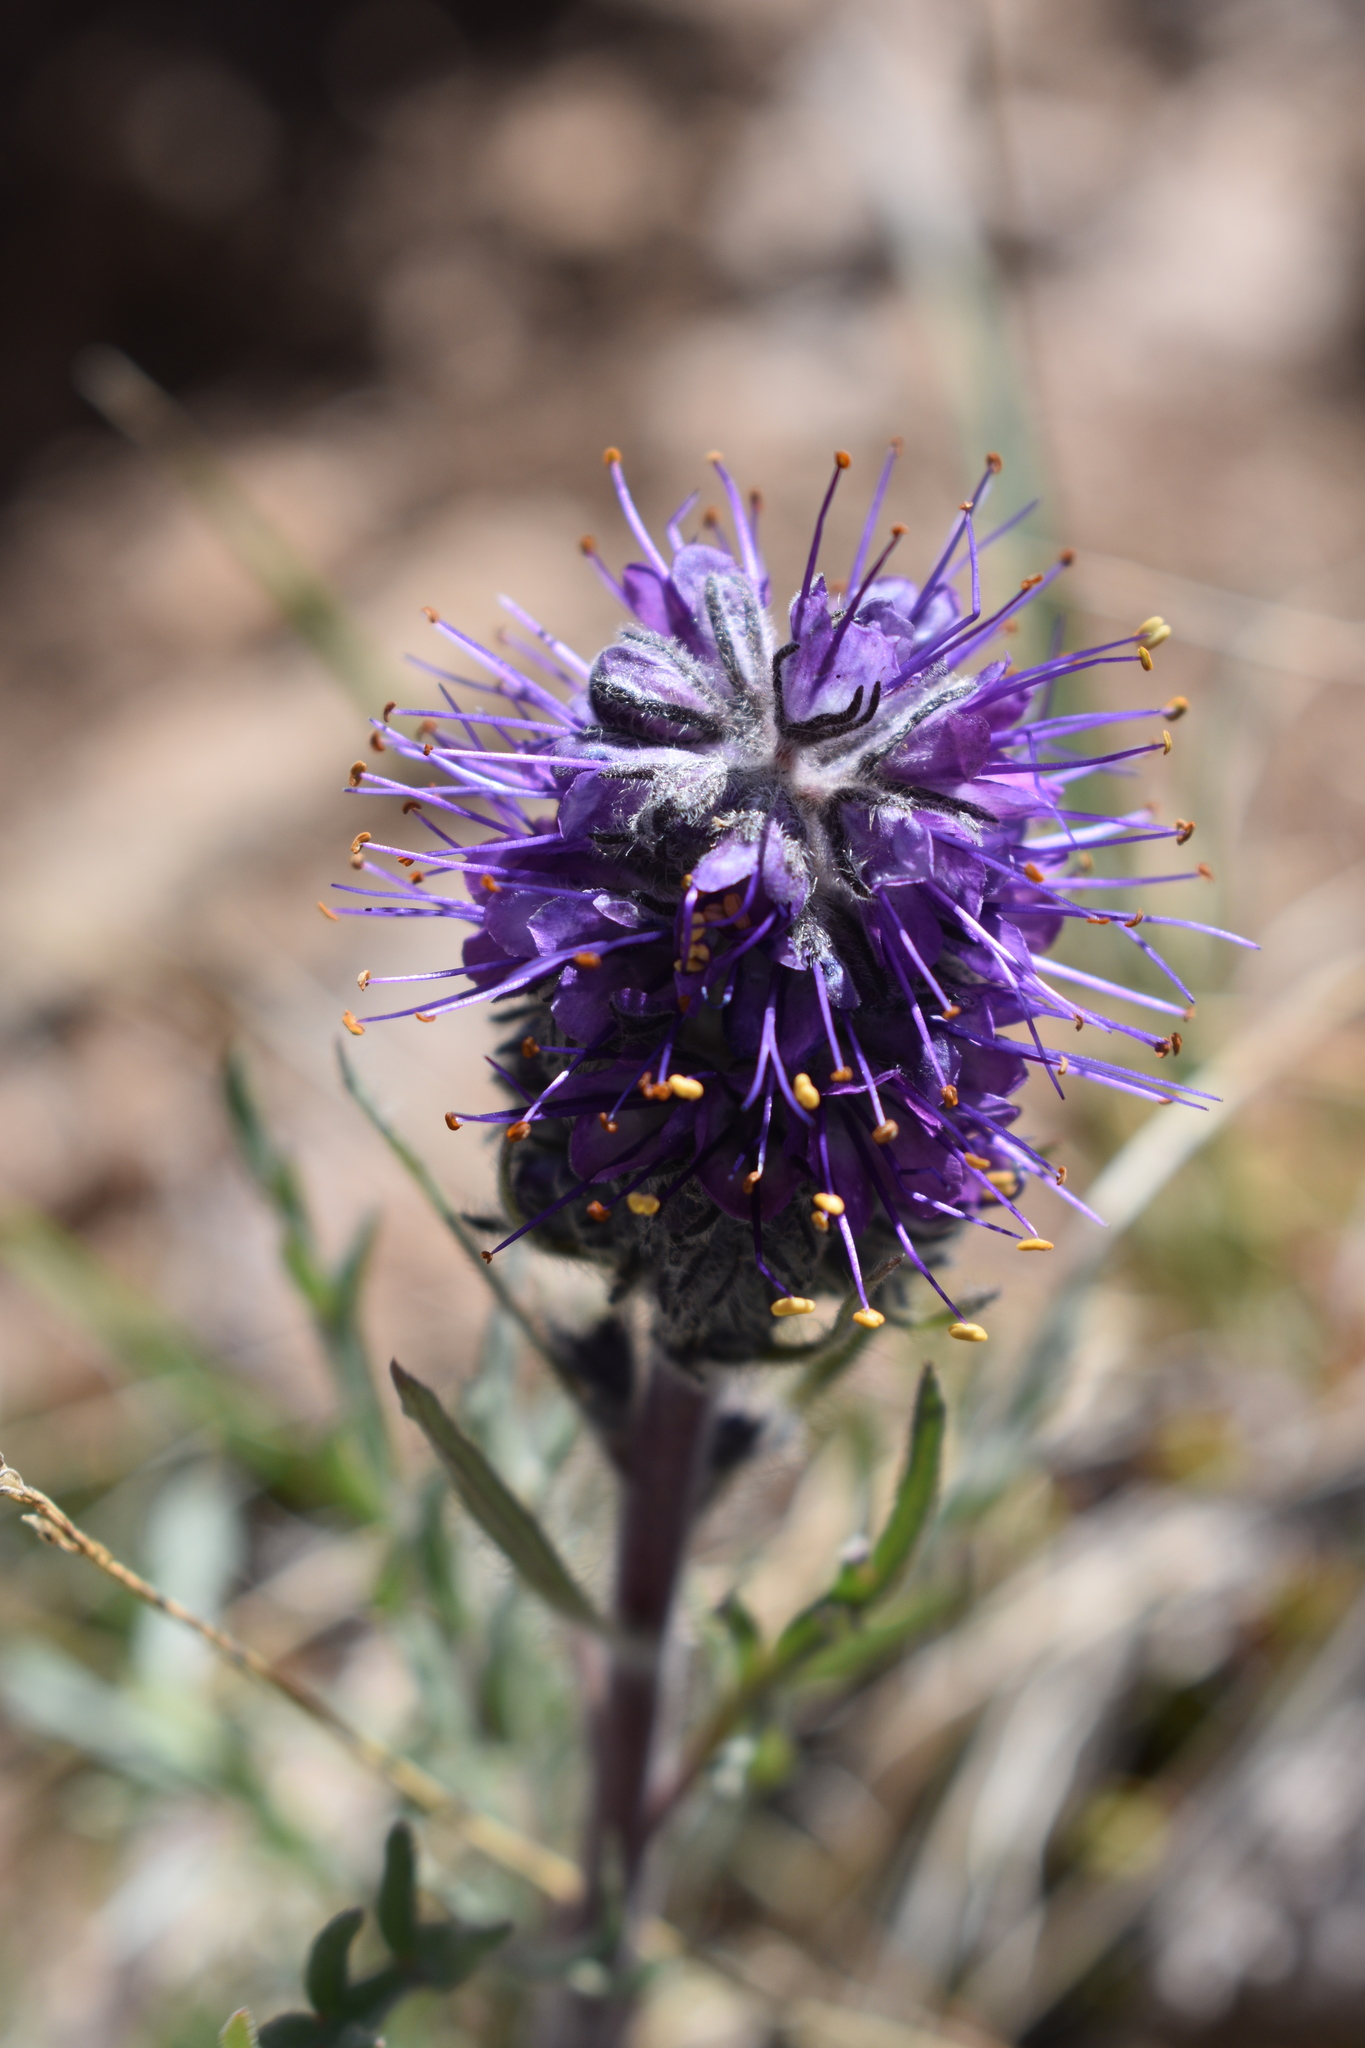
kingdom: Plantae
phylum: Tracheophyta
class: Magnoliopsida
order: Boraginales
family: Hydrophyllaceae
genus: Phacelia
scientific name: Phacelia sericea
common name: Silky phacelia
